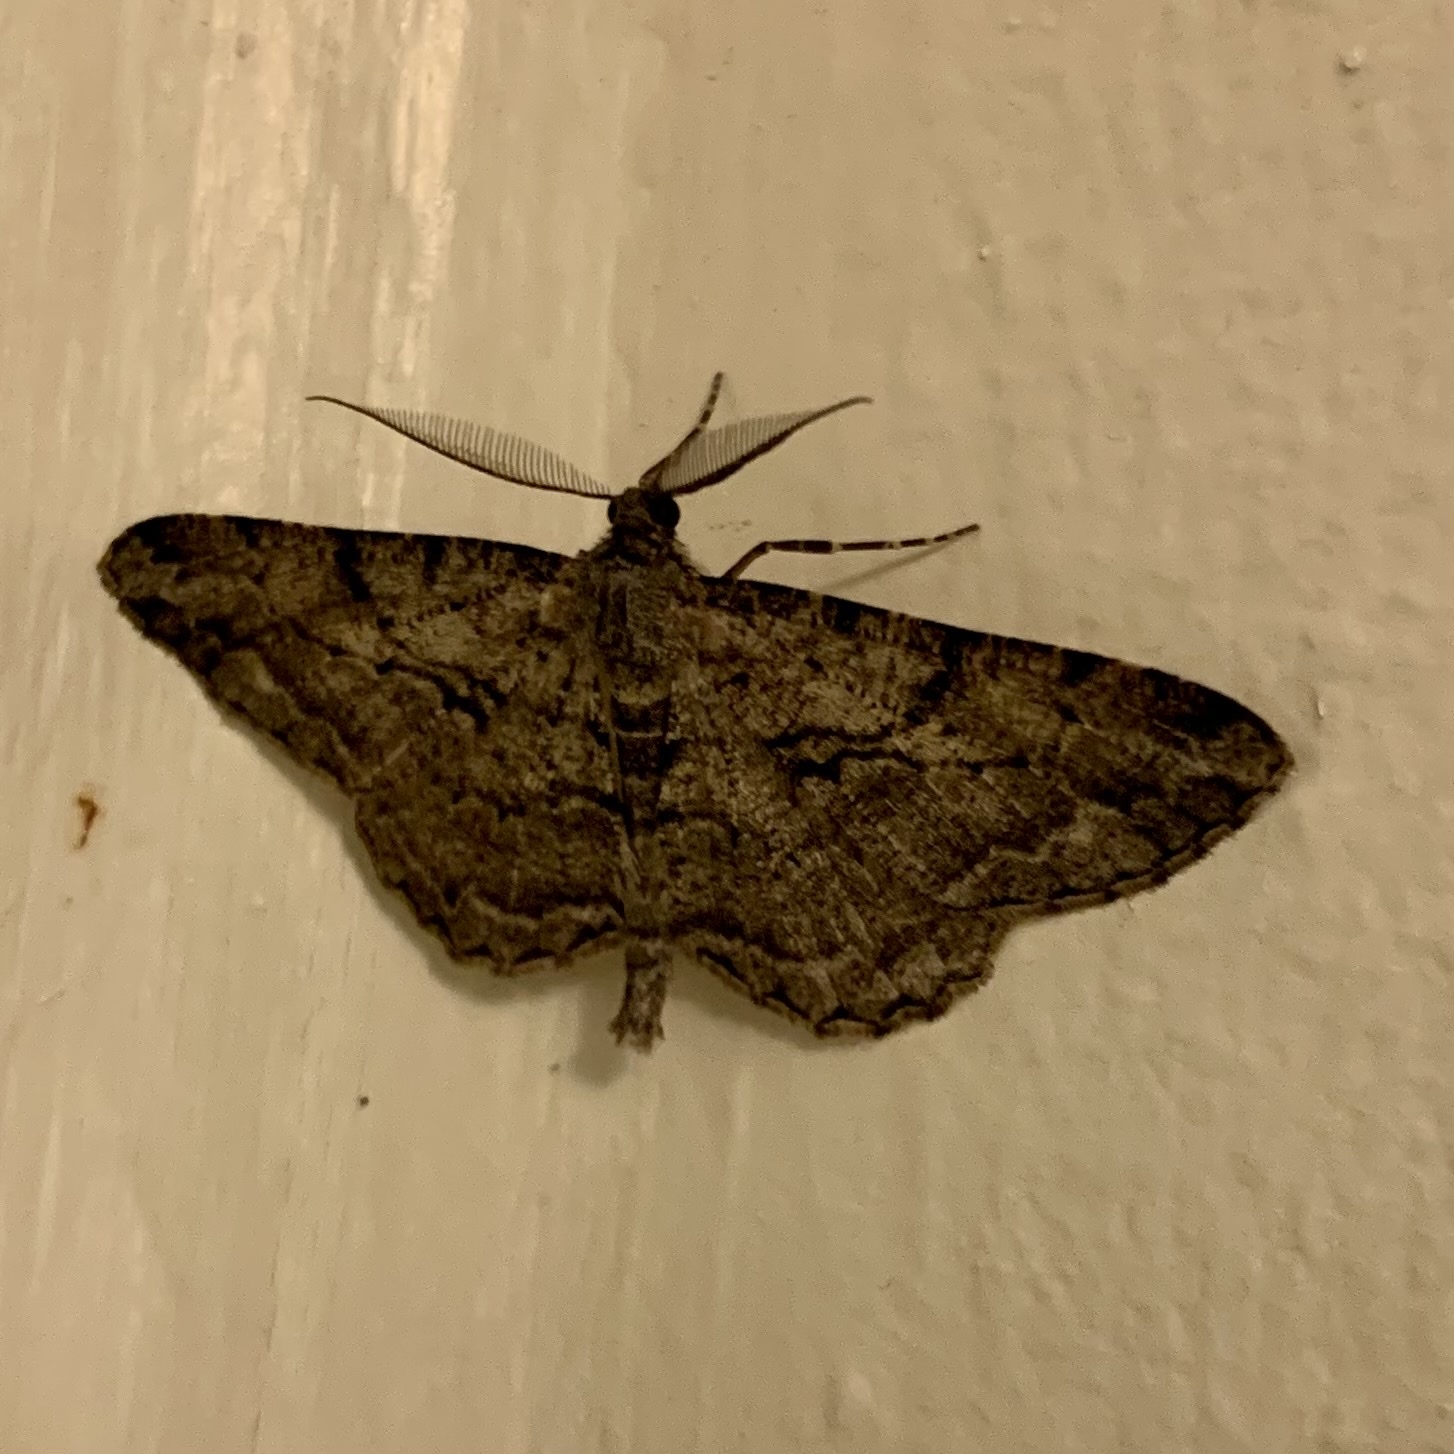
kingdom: Animalia
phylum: Arthropoda
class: Insecta
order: Lepidoptera
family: Geometridae
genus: Peribatodes
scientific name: Peribatodes rhomboidaria
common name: Willow beauty
